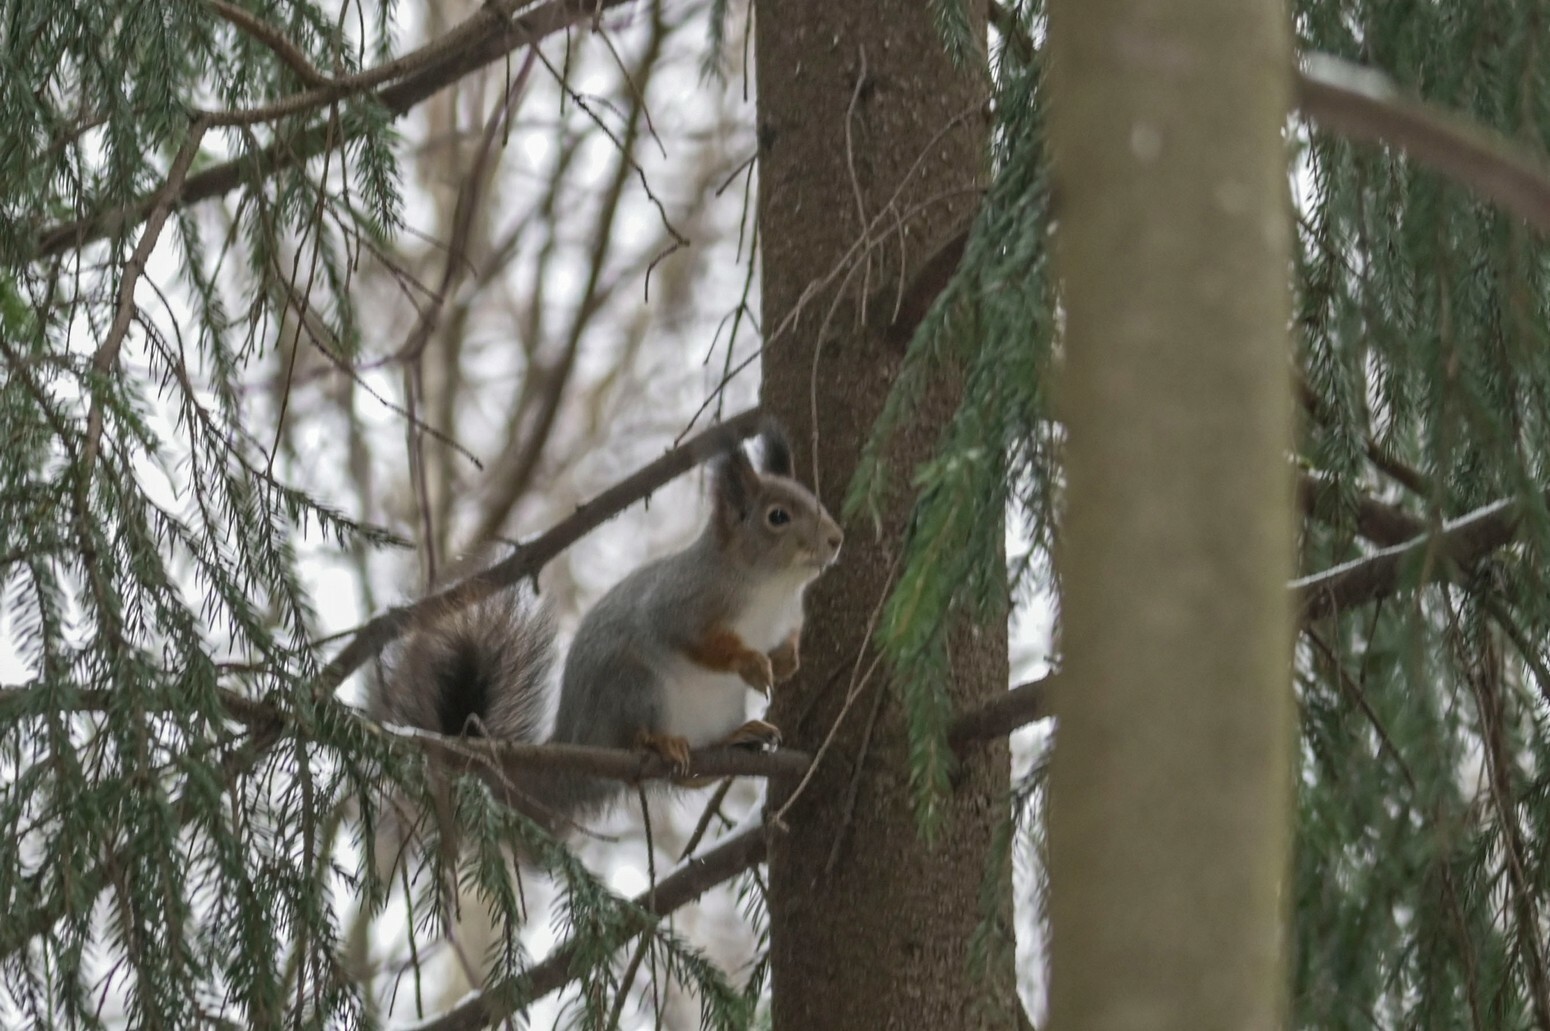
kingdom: Animalia
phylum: Chordata
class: Mammalia
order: Rodentia
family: Sciuridae
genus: Sciurus
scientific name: Sciurus vulgaris
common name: Eurasian red squirrel
